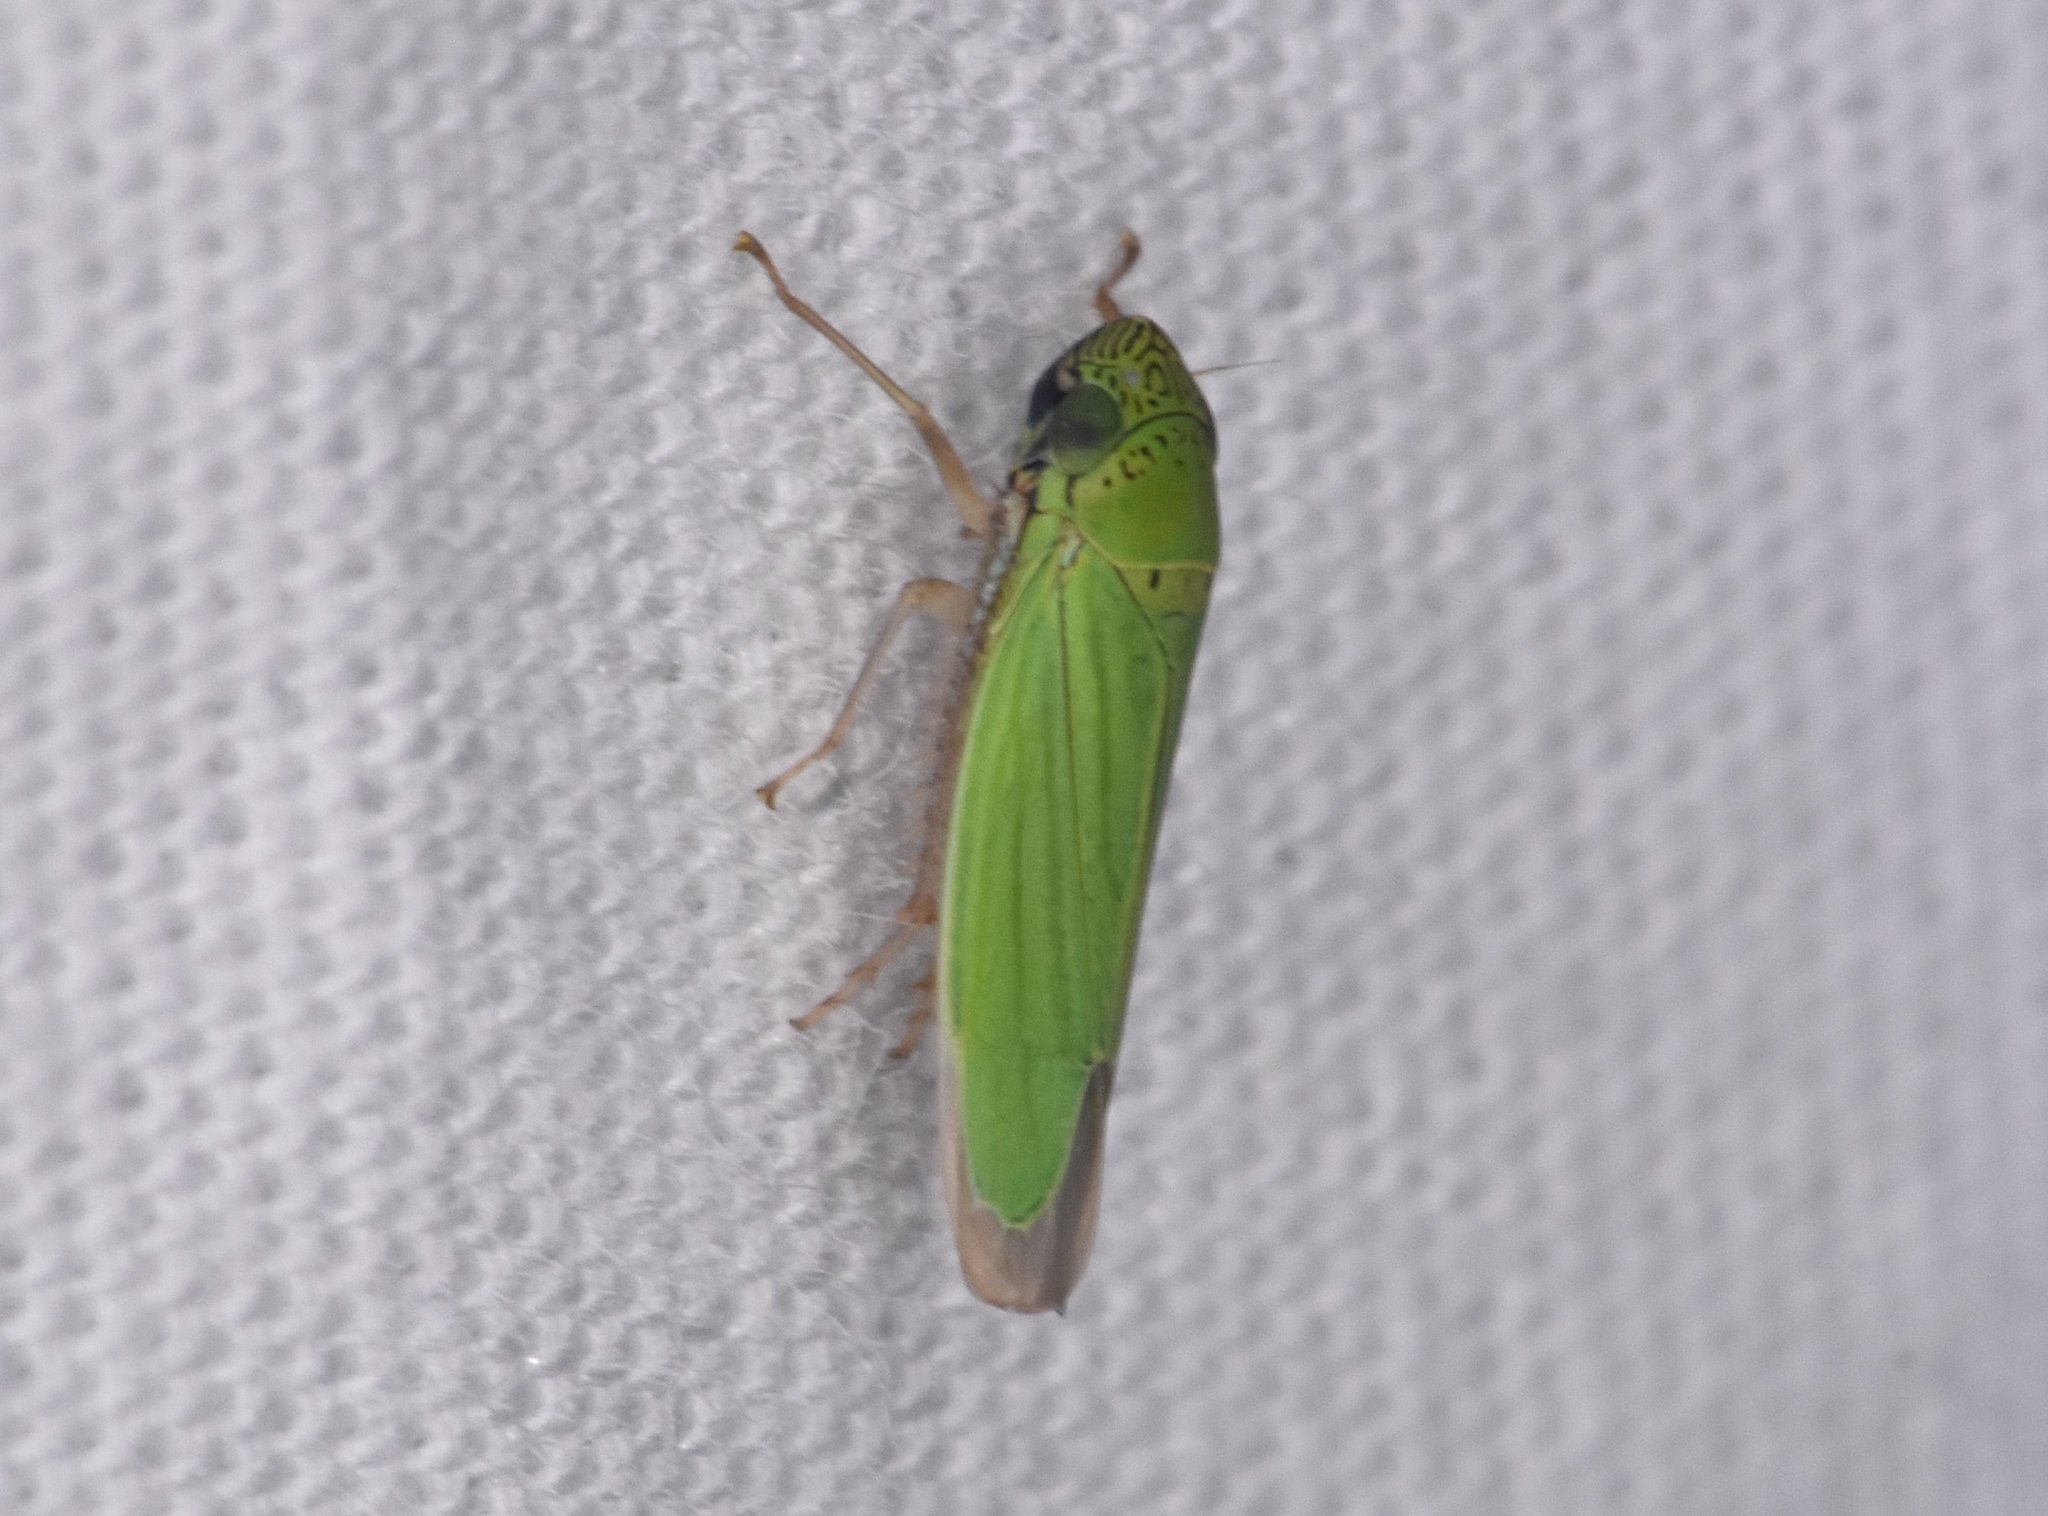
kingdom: Animalia
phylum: Arthropoda
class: Insecta
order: Hemiptera
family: Cicadellidae
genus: Hortensia
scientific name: Hortensia similis
